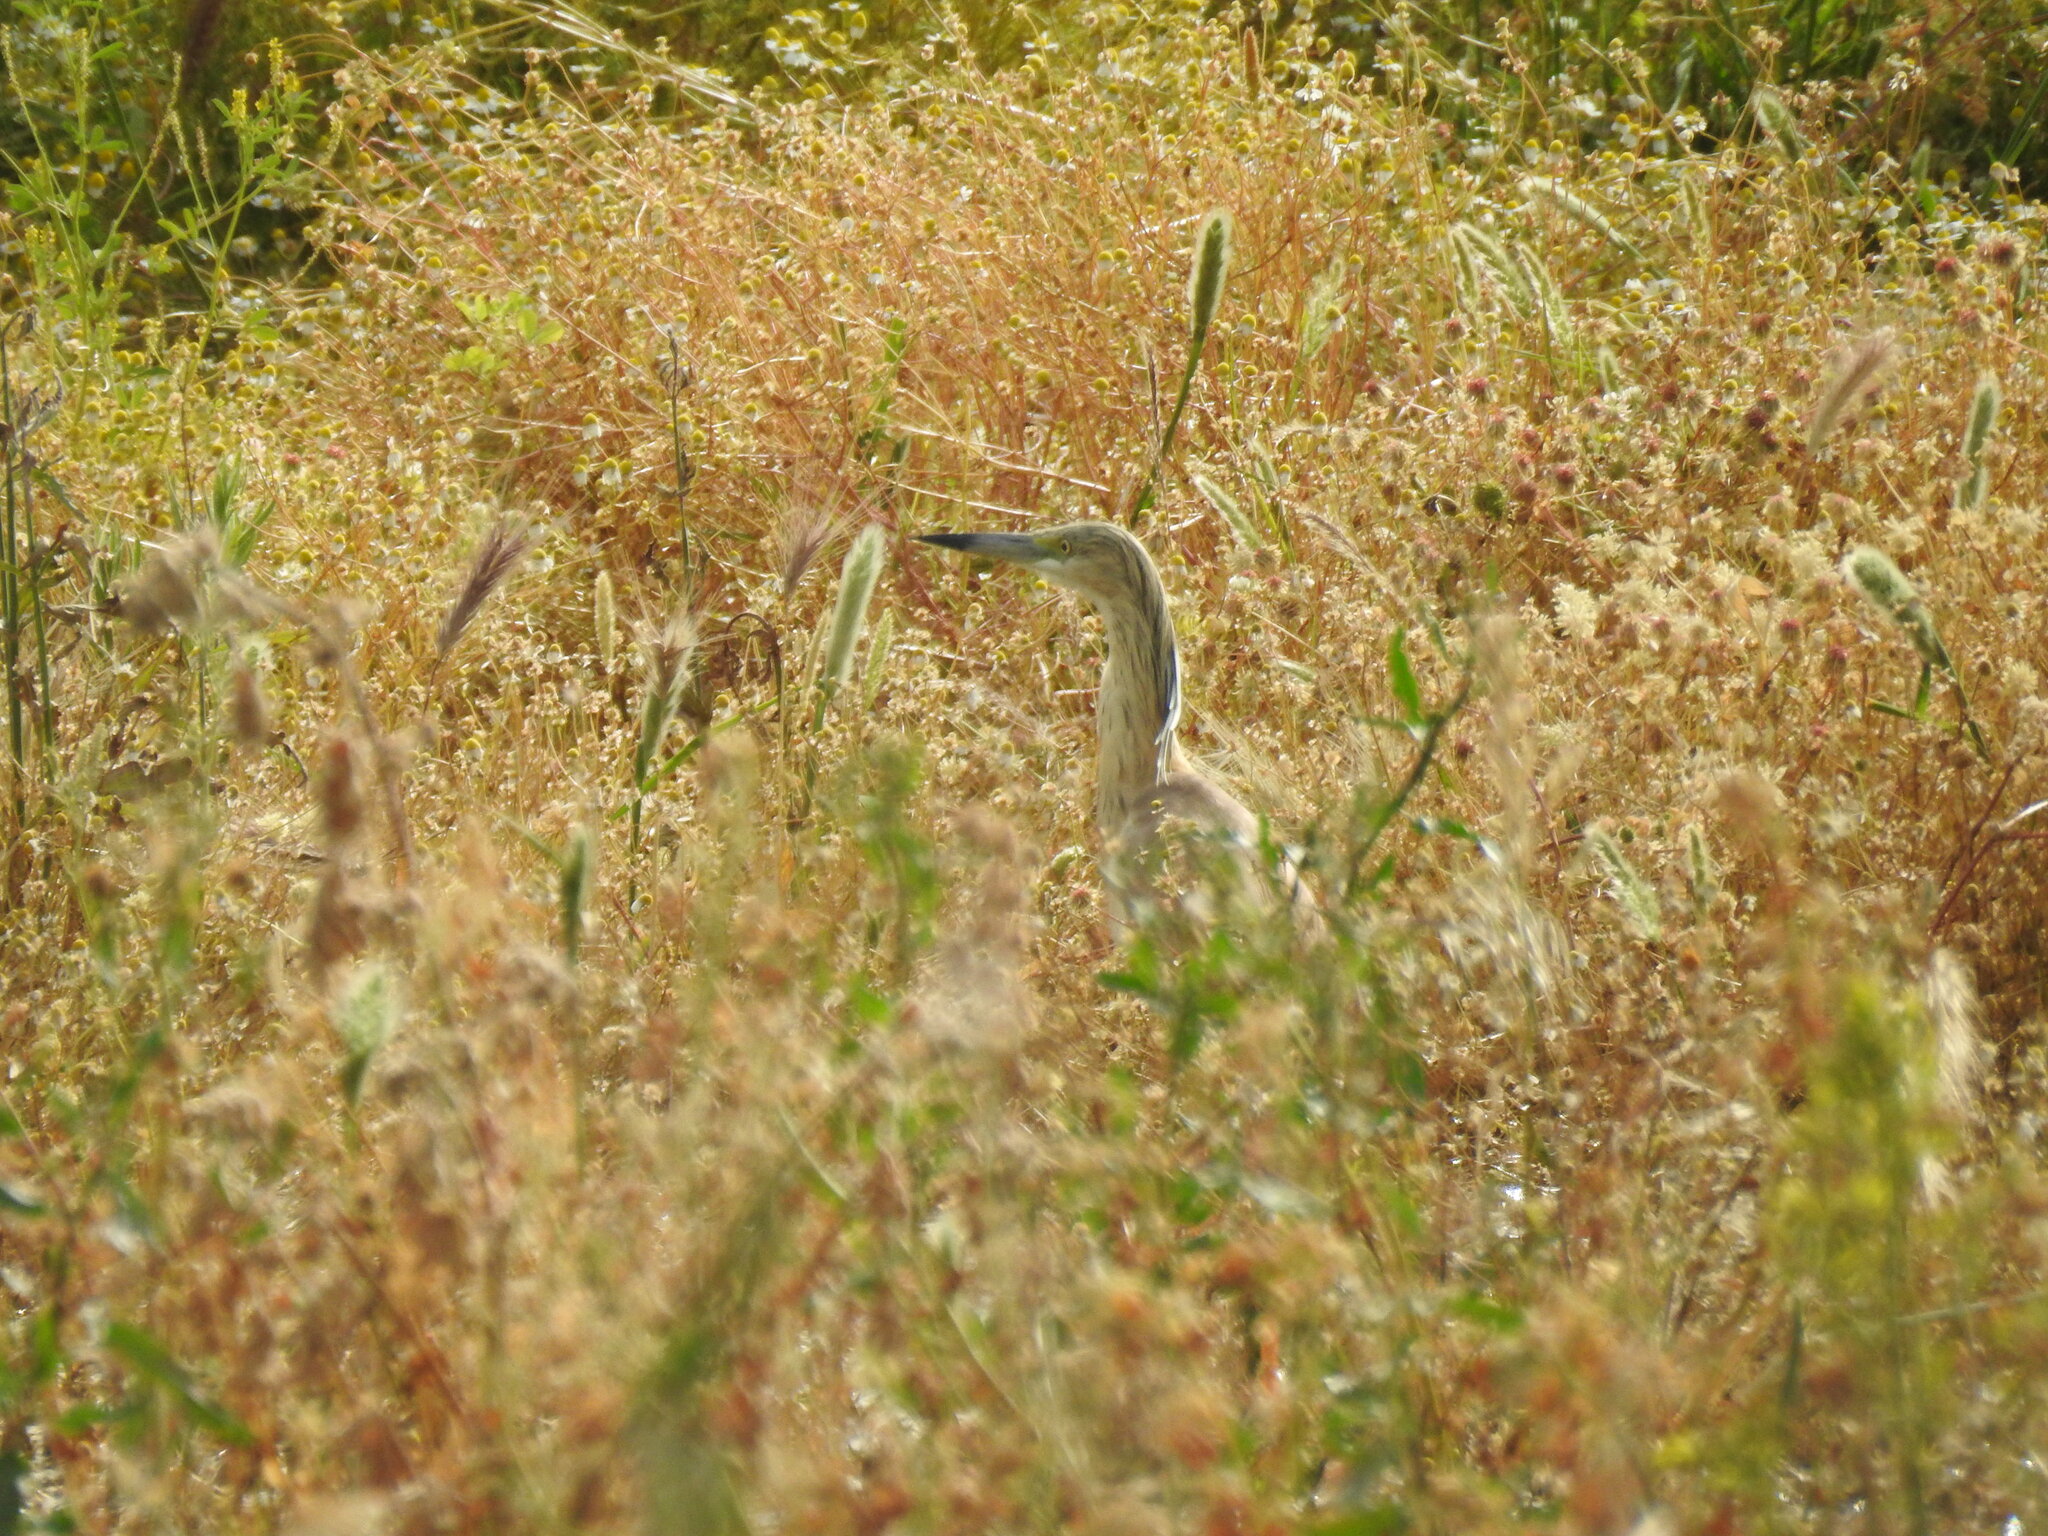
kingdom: Animalia
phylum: Chordata
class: Aves
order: Pelecaniformes
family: Ardeidae
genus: Ardeola
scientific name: Ardeola ralloides
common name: Squacco heron
